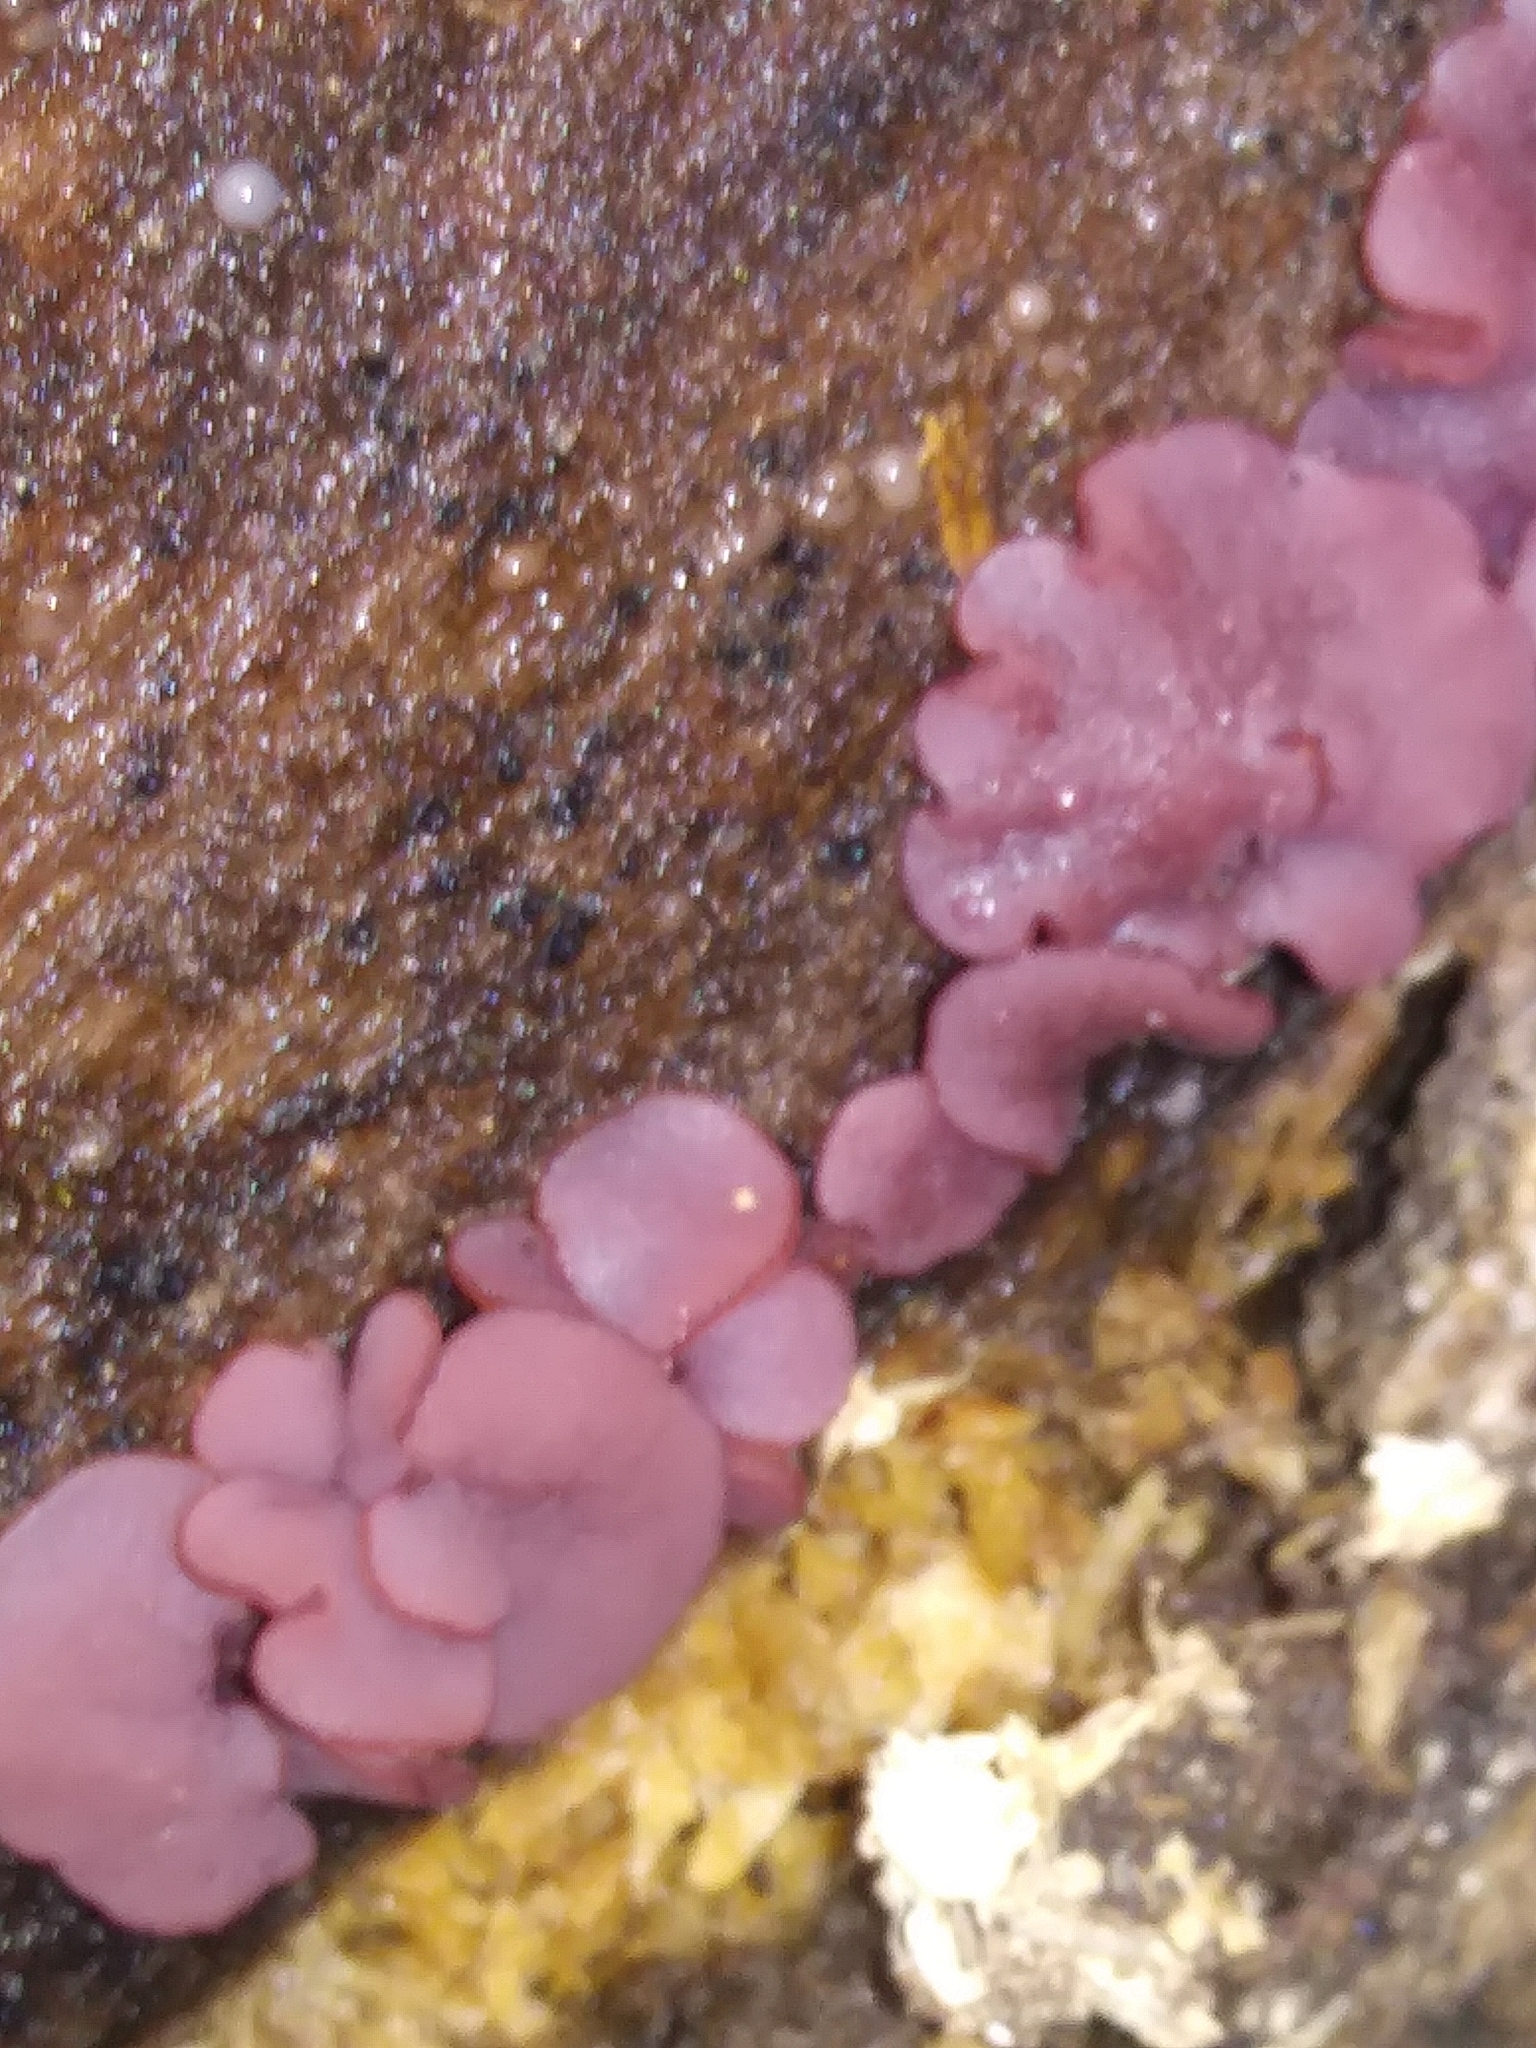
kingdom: Fungi
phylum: Ascomycota
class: Leotiomycetes
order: Helotiales
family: Gelatinodiscaceae
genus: Ascocoryne
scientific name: Ascocoryne sarcoides
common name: Purple jellydisc
